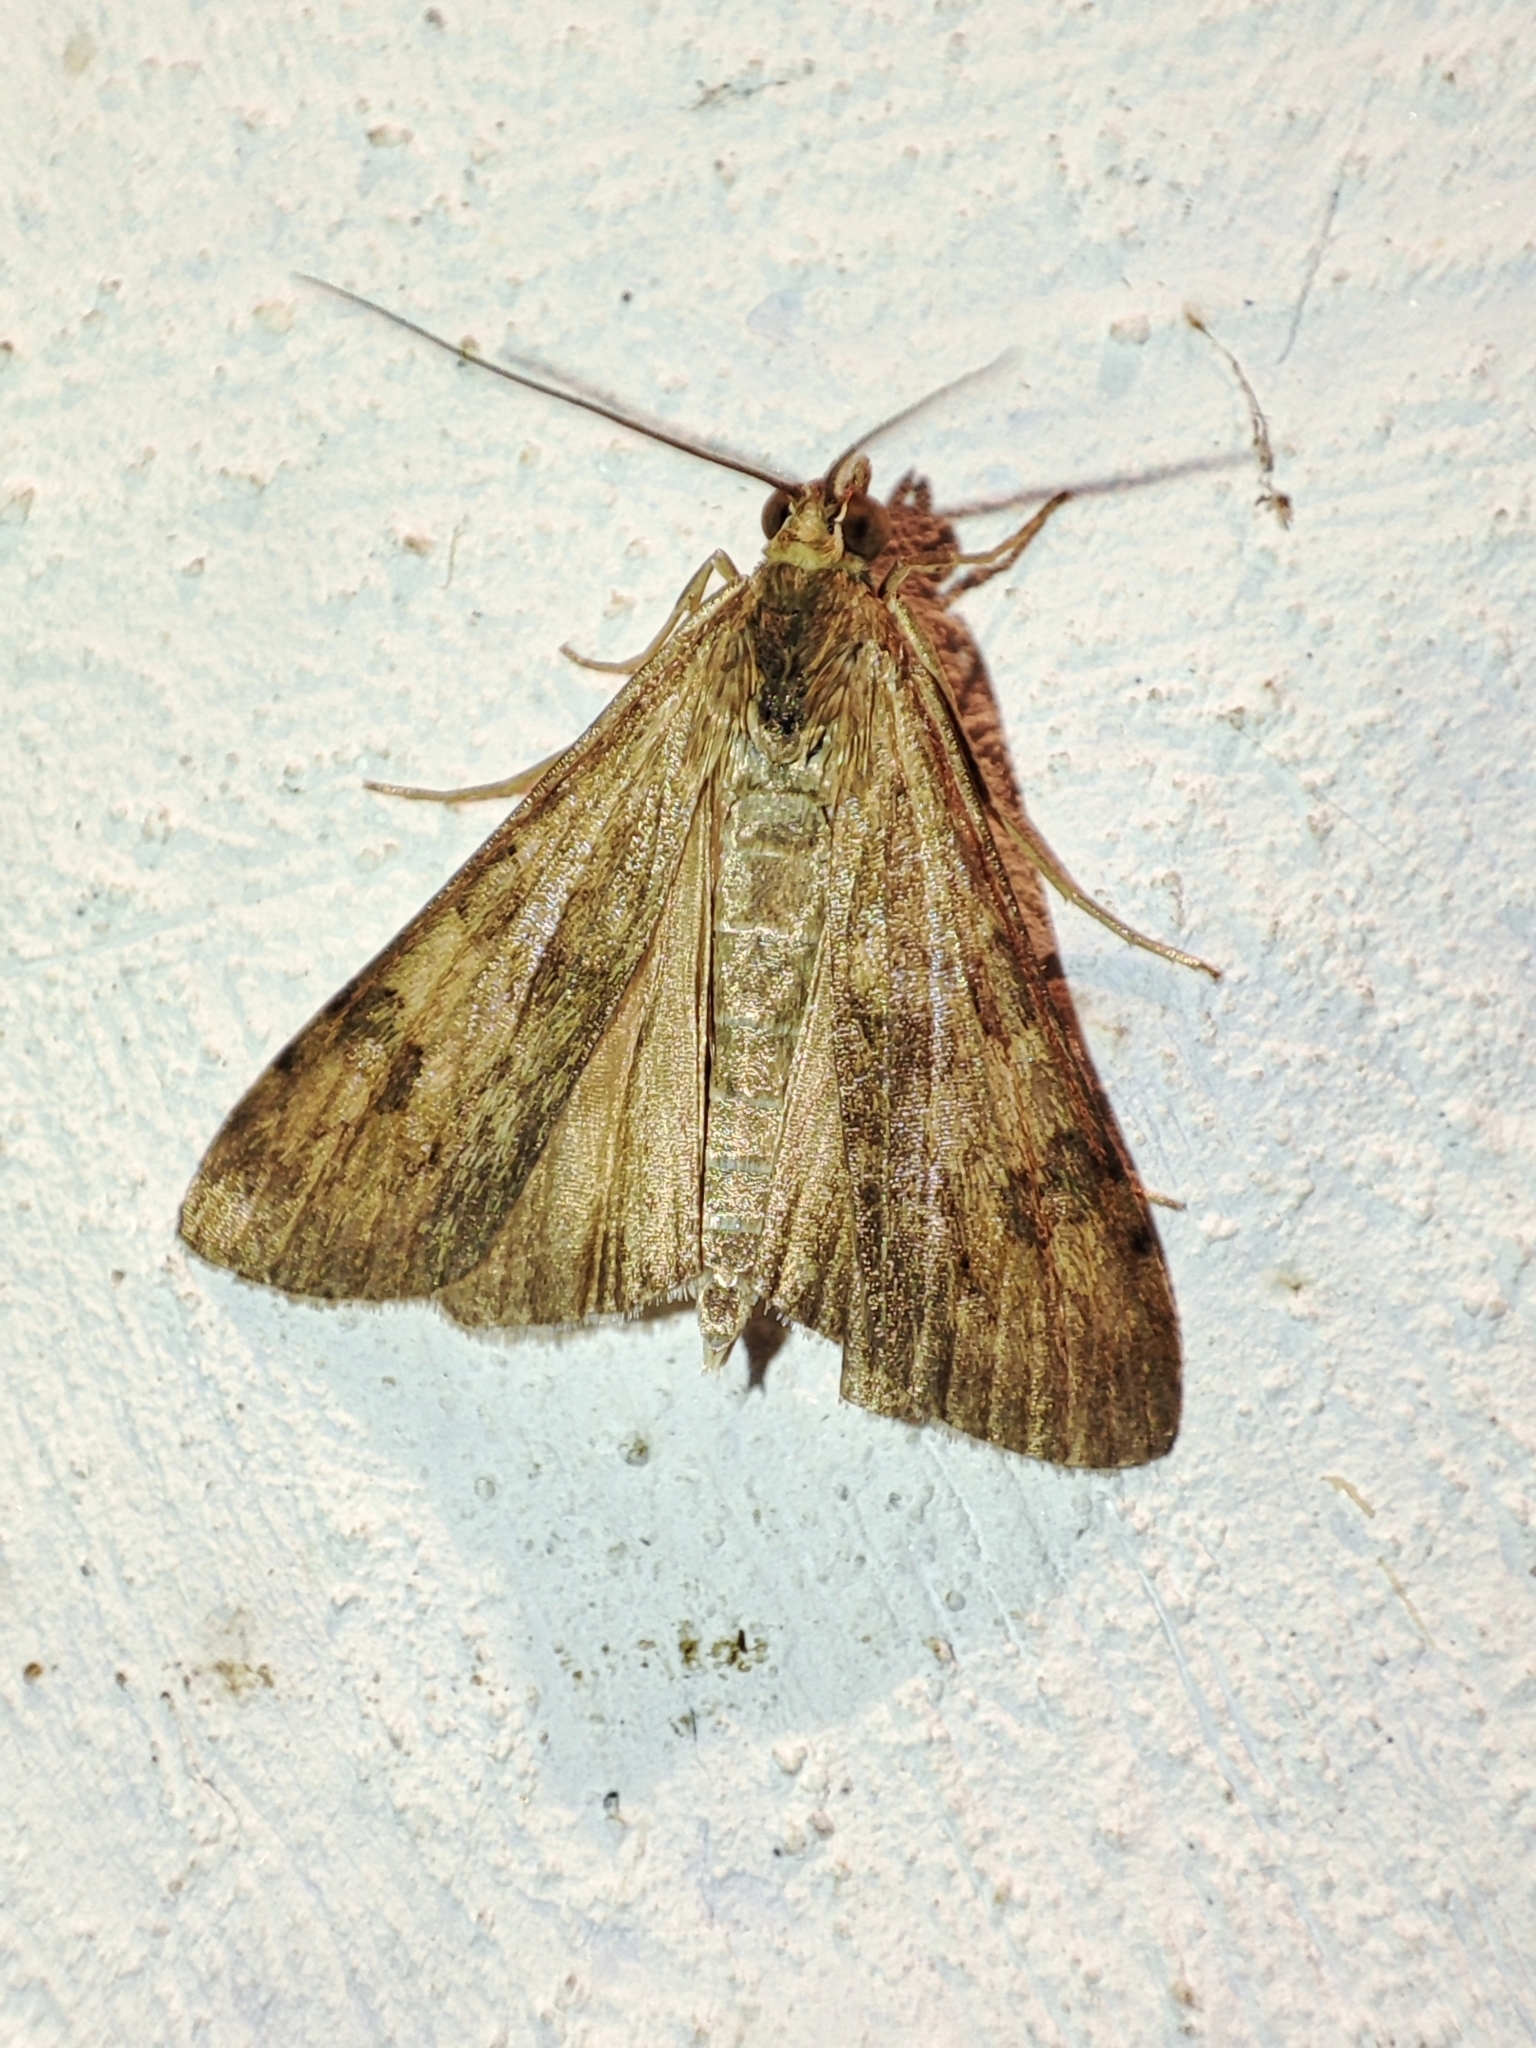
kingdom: Animalia
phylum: Arthropoda
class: Insecta
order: Lepidoptera
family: Crambidae
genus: Nomophila
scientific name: Nomophila noctuella
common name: Rush veneer
